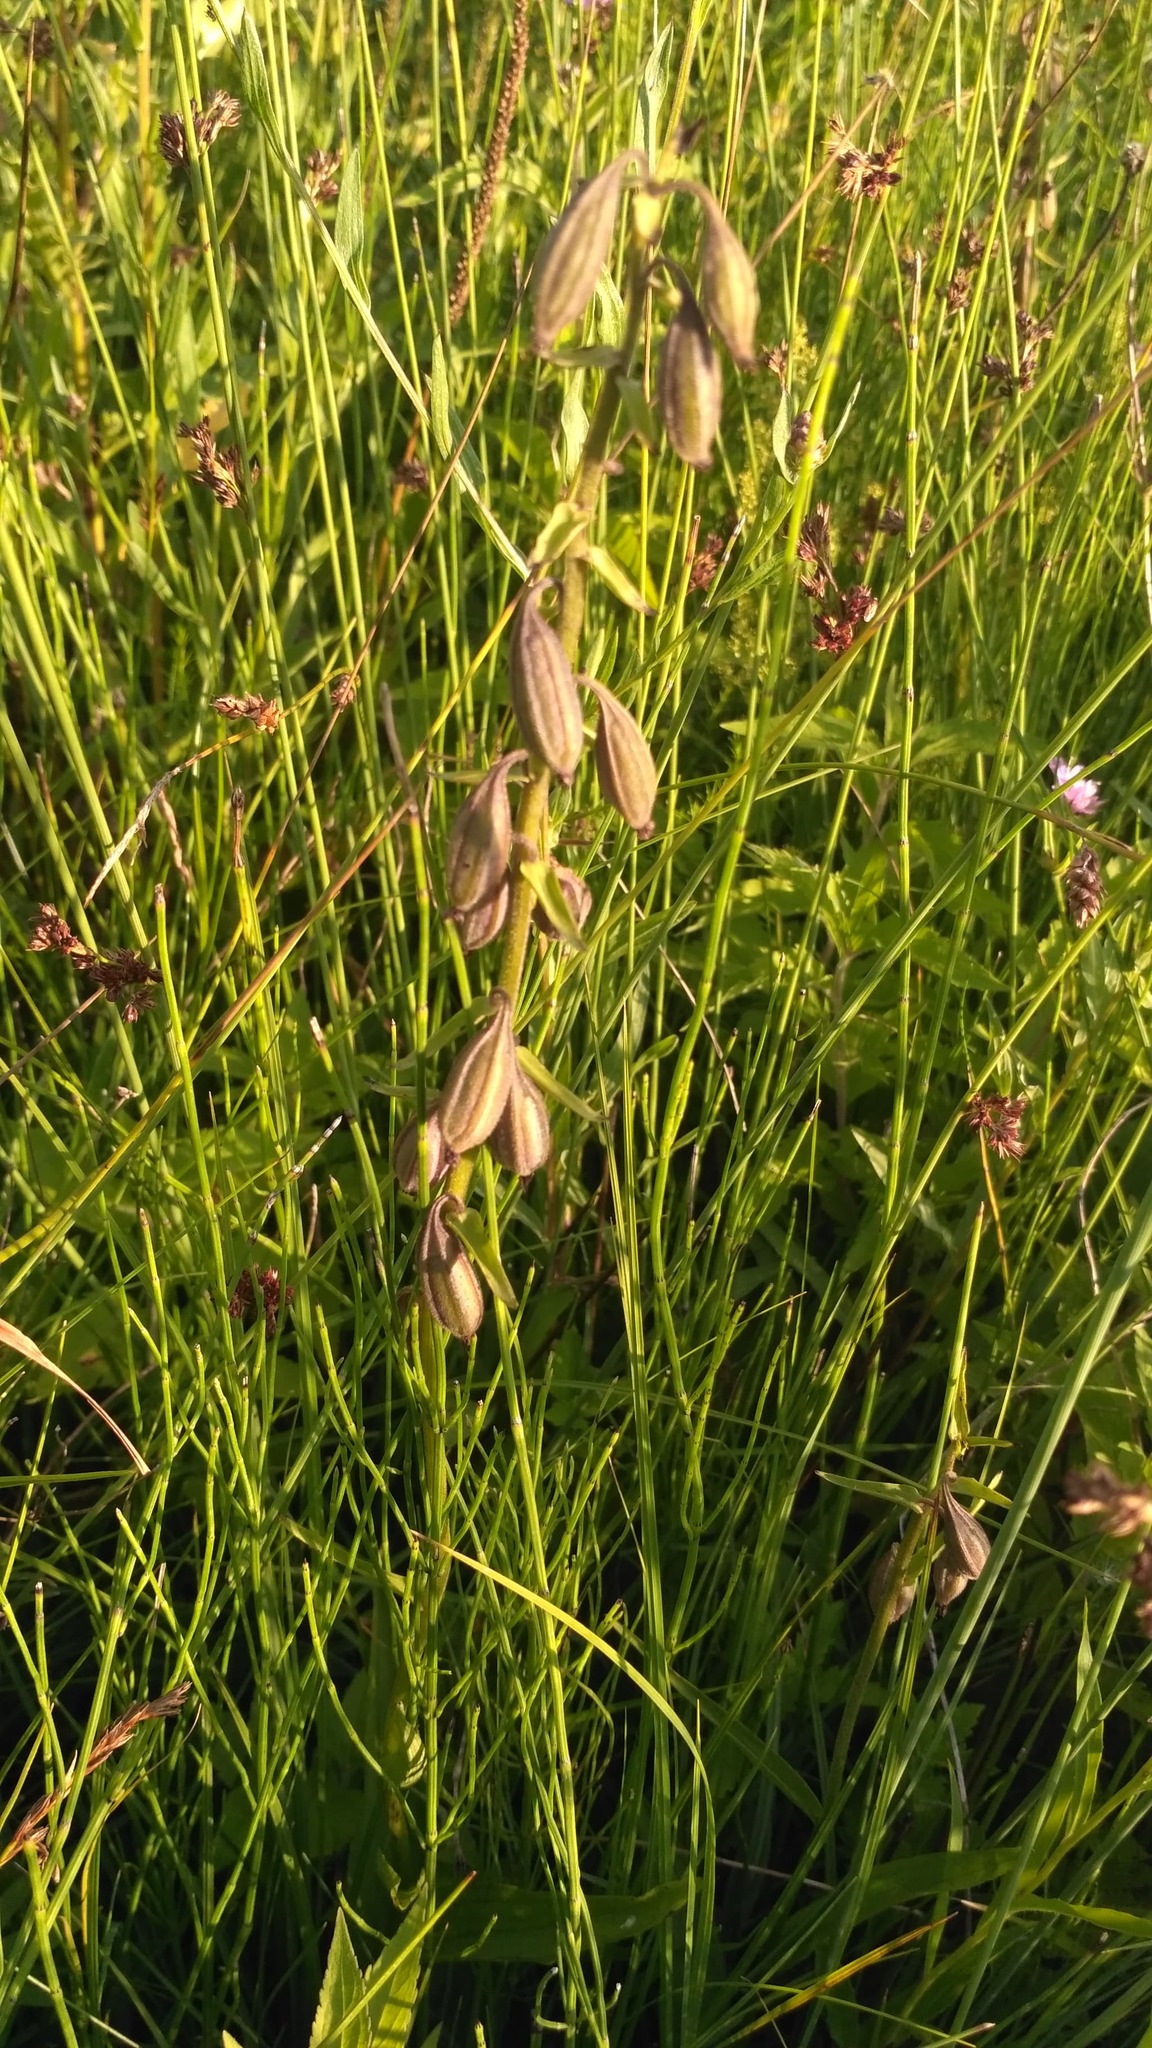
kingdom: Plantae
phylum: Tracheophyta
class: Liliopsida
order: Asparagales
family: Orchidaceae
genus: Epipactis
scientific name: Epipactis palustris
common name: Marsh helleborine
